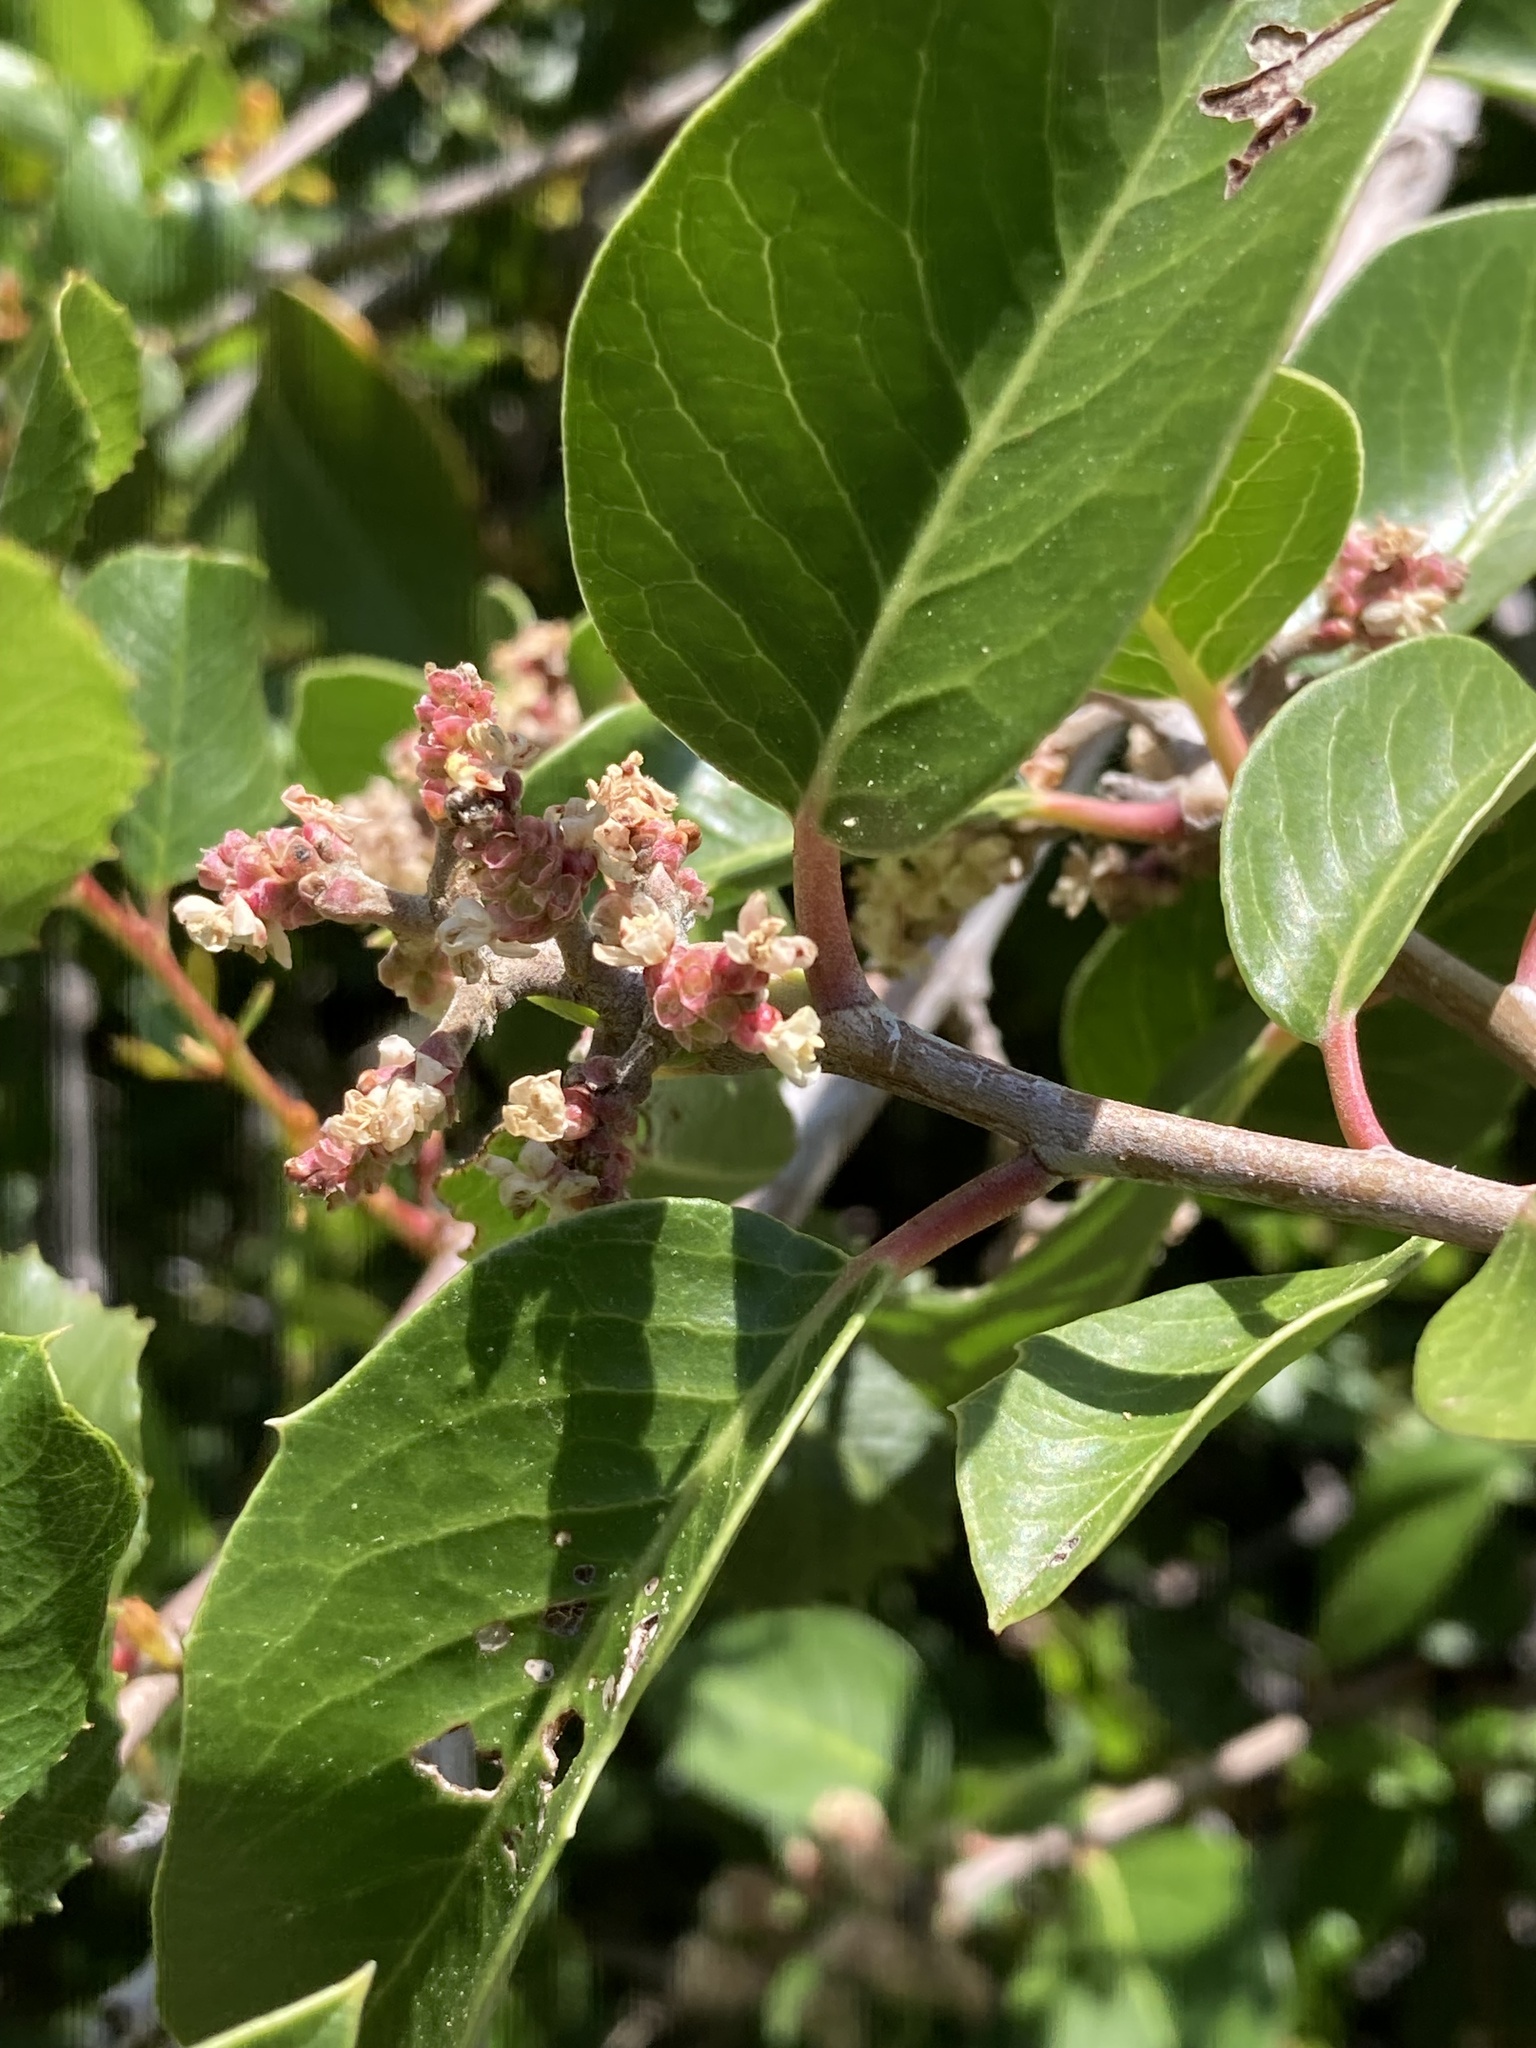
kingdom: Plantae
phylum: Tracheophyta
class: Magnoliopsida
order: Sapindales
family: Anacardiaceae
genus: Rhus
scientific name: Rhus ovata
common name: Sugar sumac
